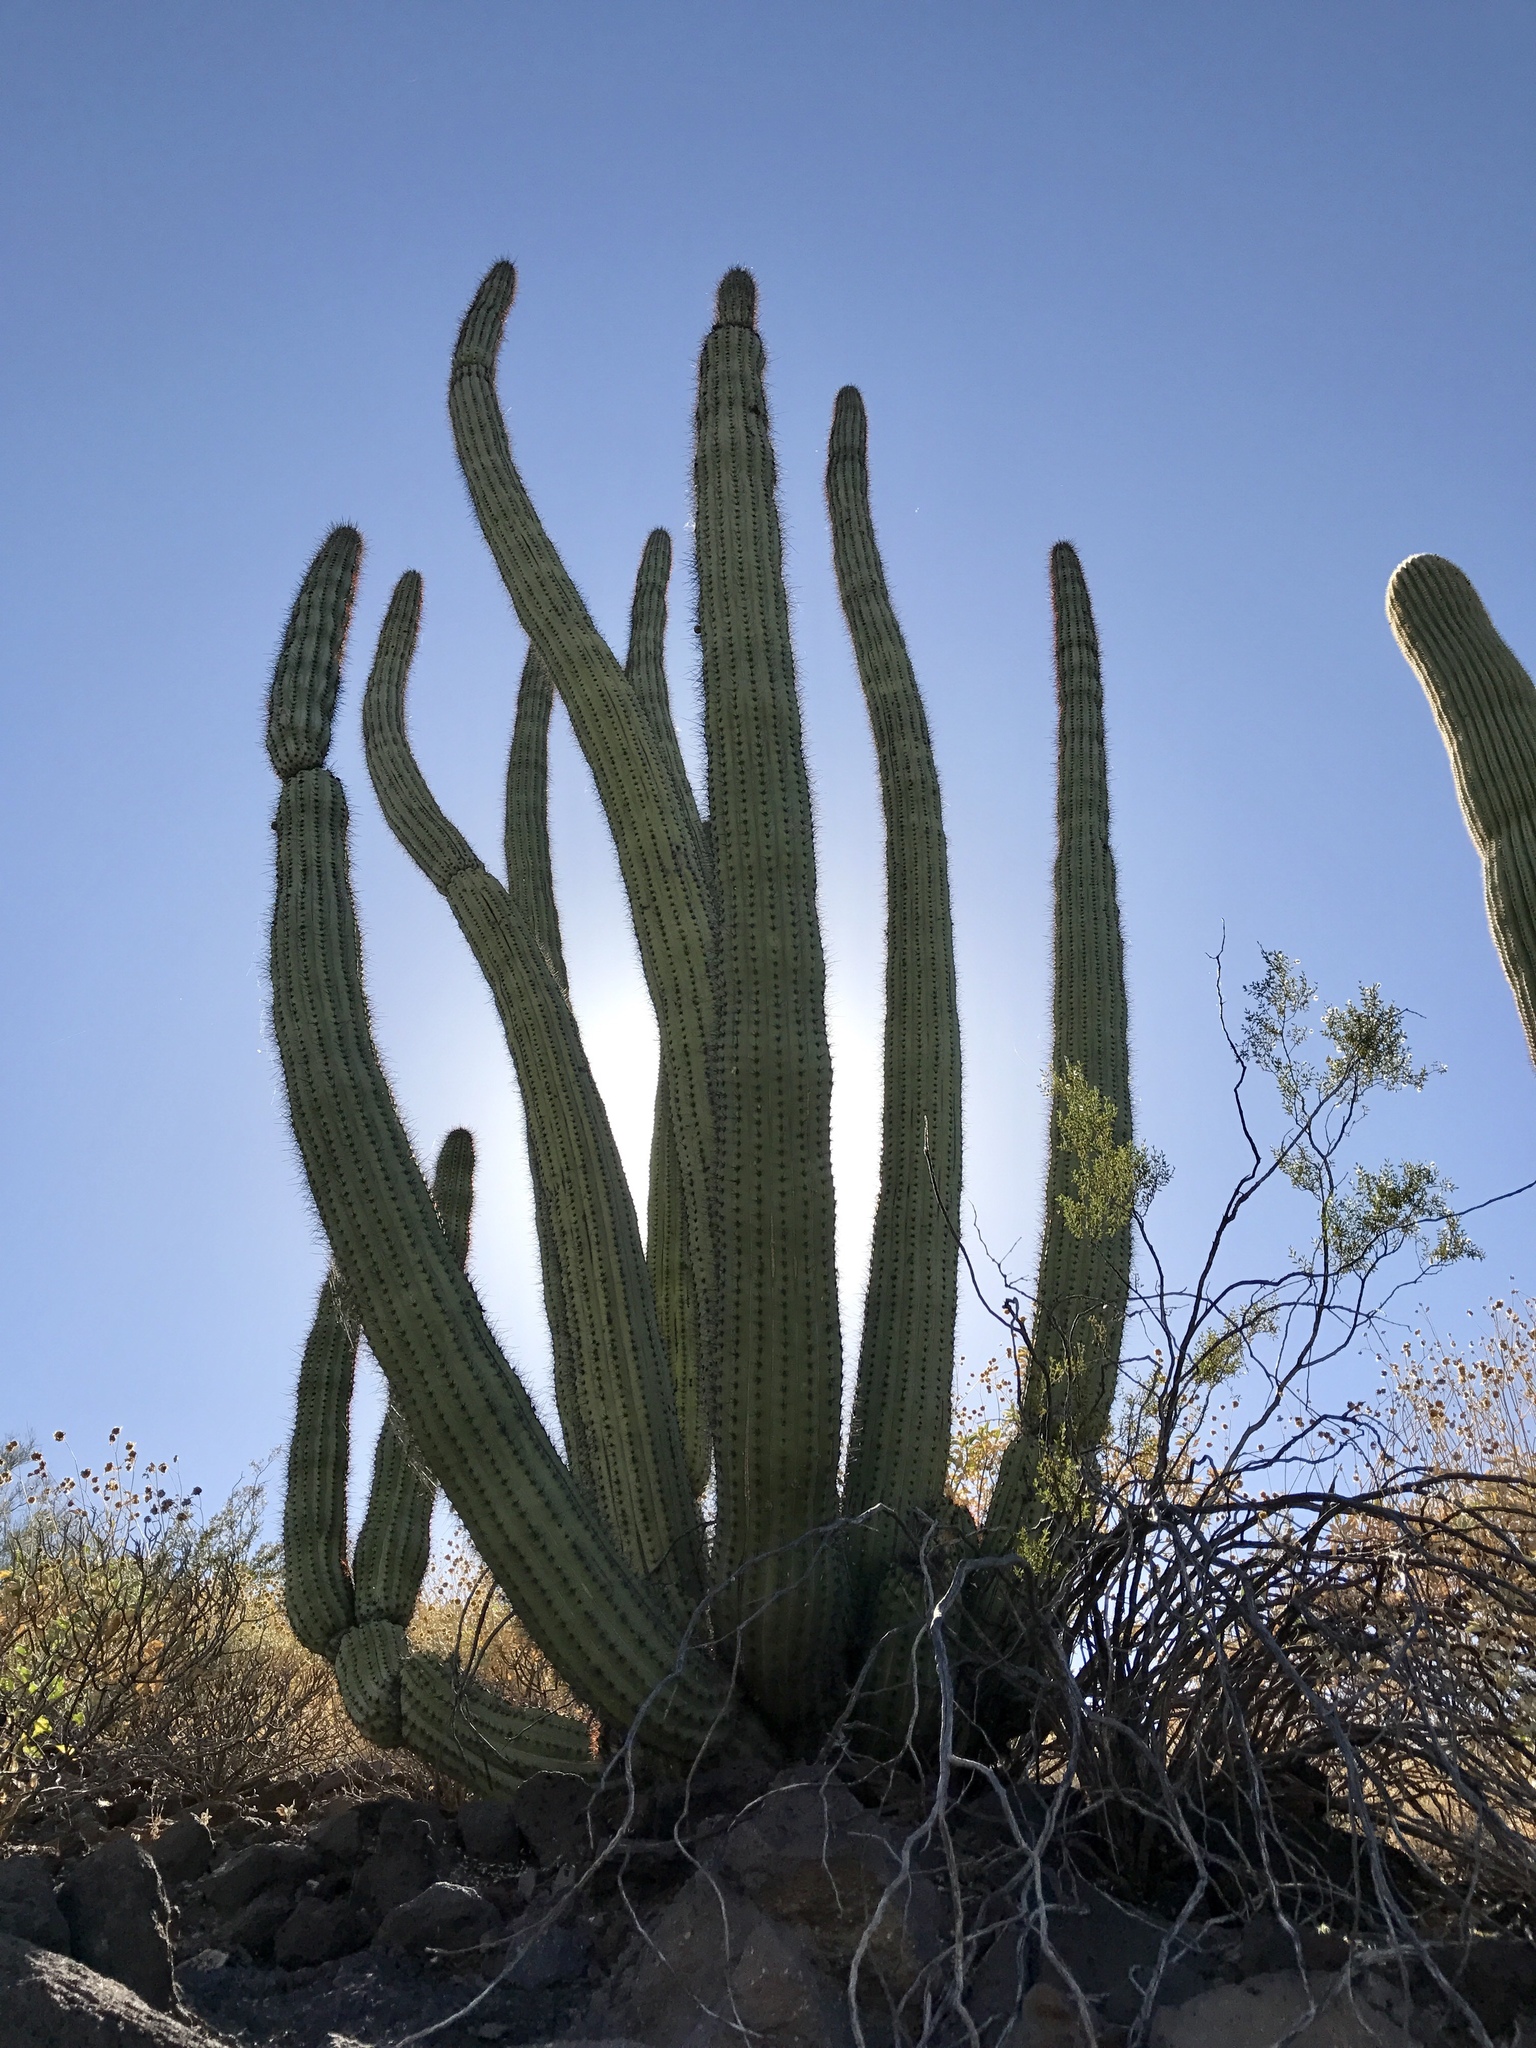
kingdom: Plantae
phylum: Tracheophyta
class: Magnoliopsida
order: Caryophyllales
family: Cactaceae
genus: Stenocereus
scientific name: Stenocereus thurberi
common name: Organ pipe cactus
